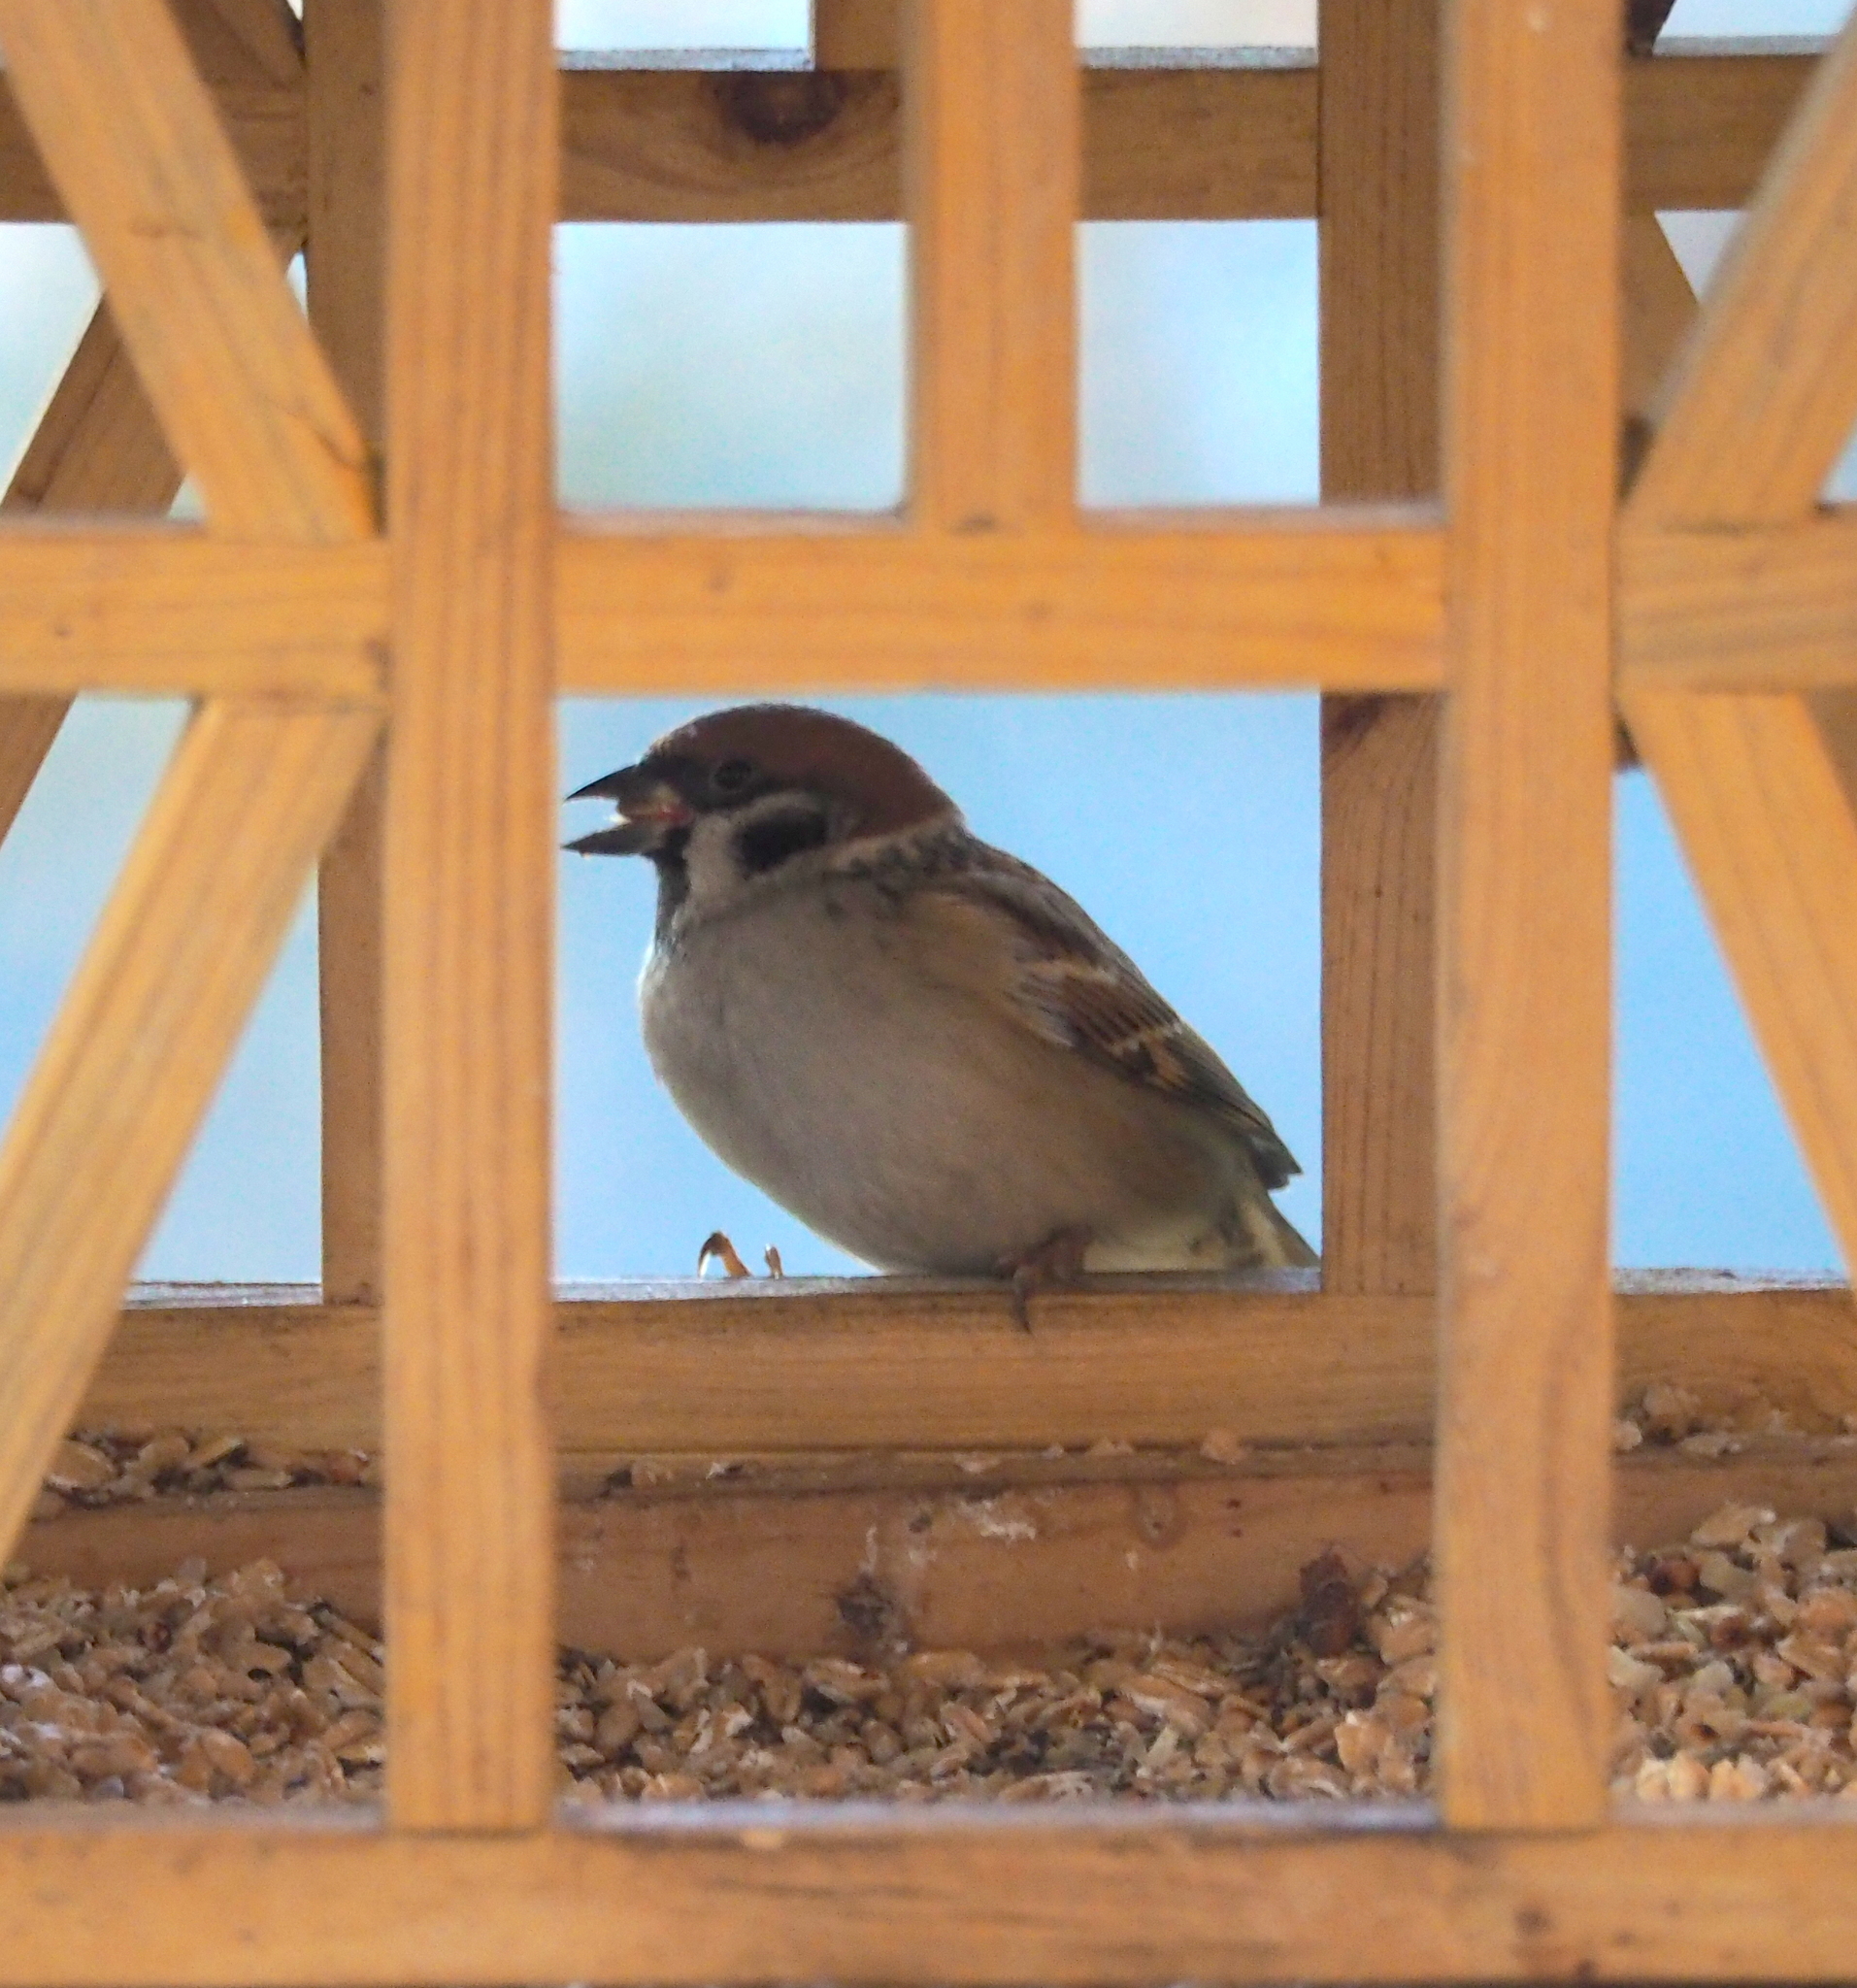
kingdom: Animalia
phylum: Chordata
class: Aves
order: Passeriformes
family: Passeridae
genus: Passer
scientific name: Passer montanus
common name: Eurasian tree sparrow
